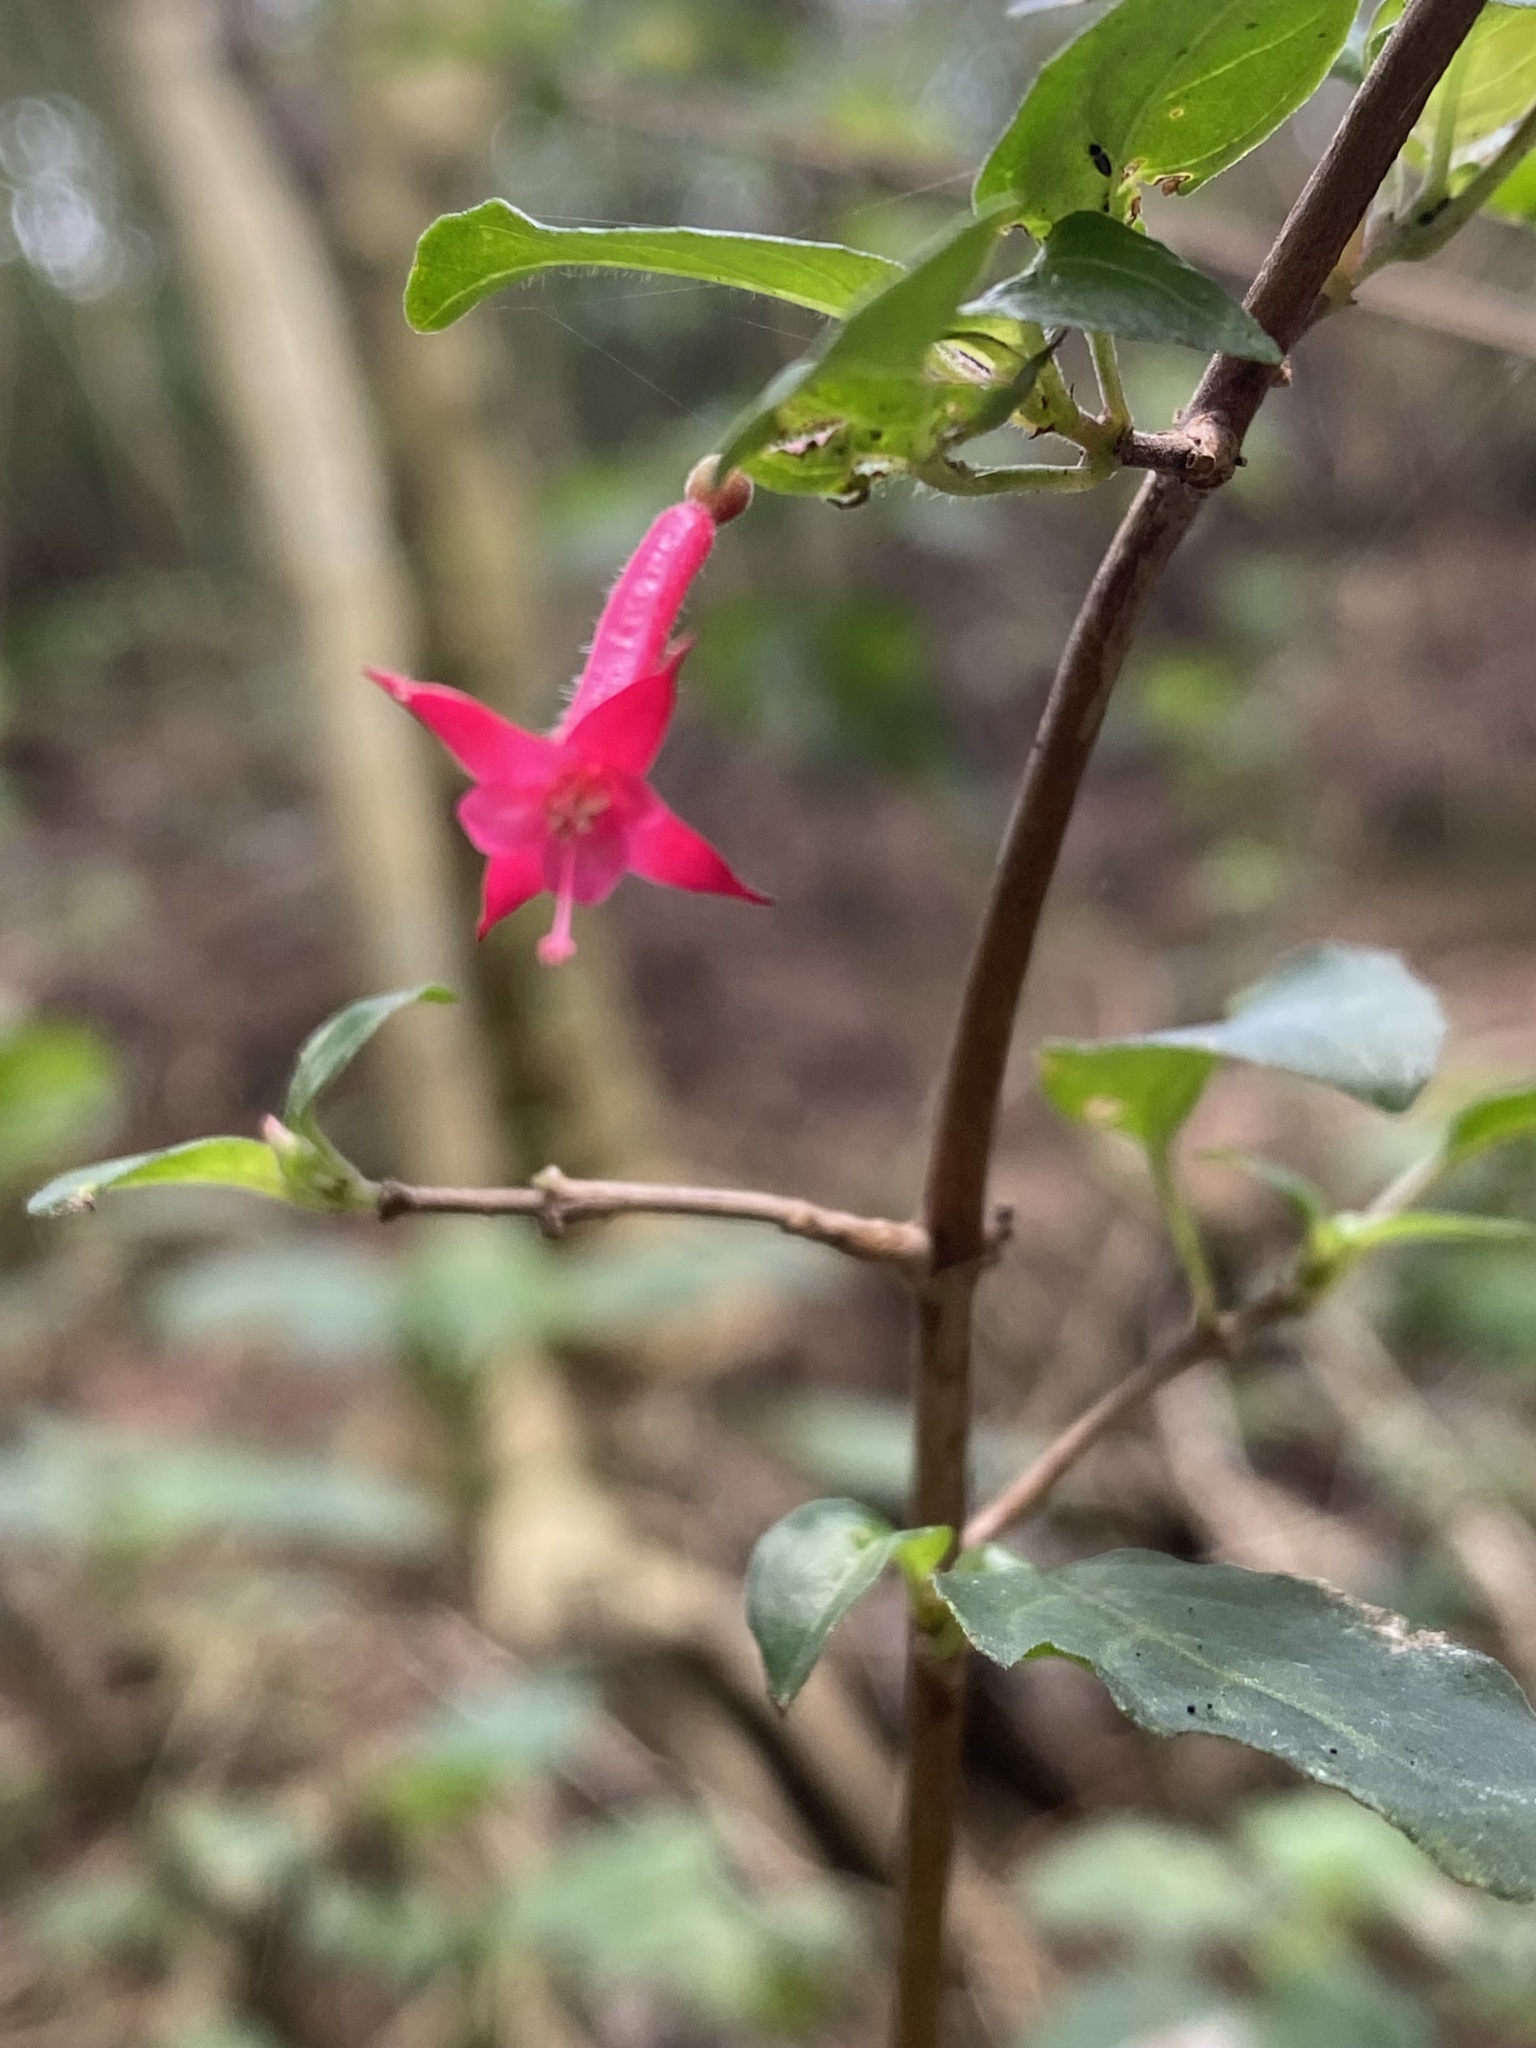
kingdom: Plantae
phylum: Tracheophyta
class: Magnoliopsida
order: Myrtales
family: Onagraceae
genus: Fuchsia
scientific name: Fuchsia microphylla
